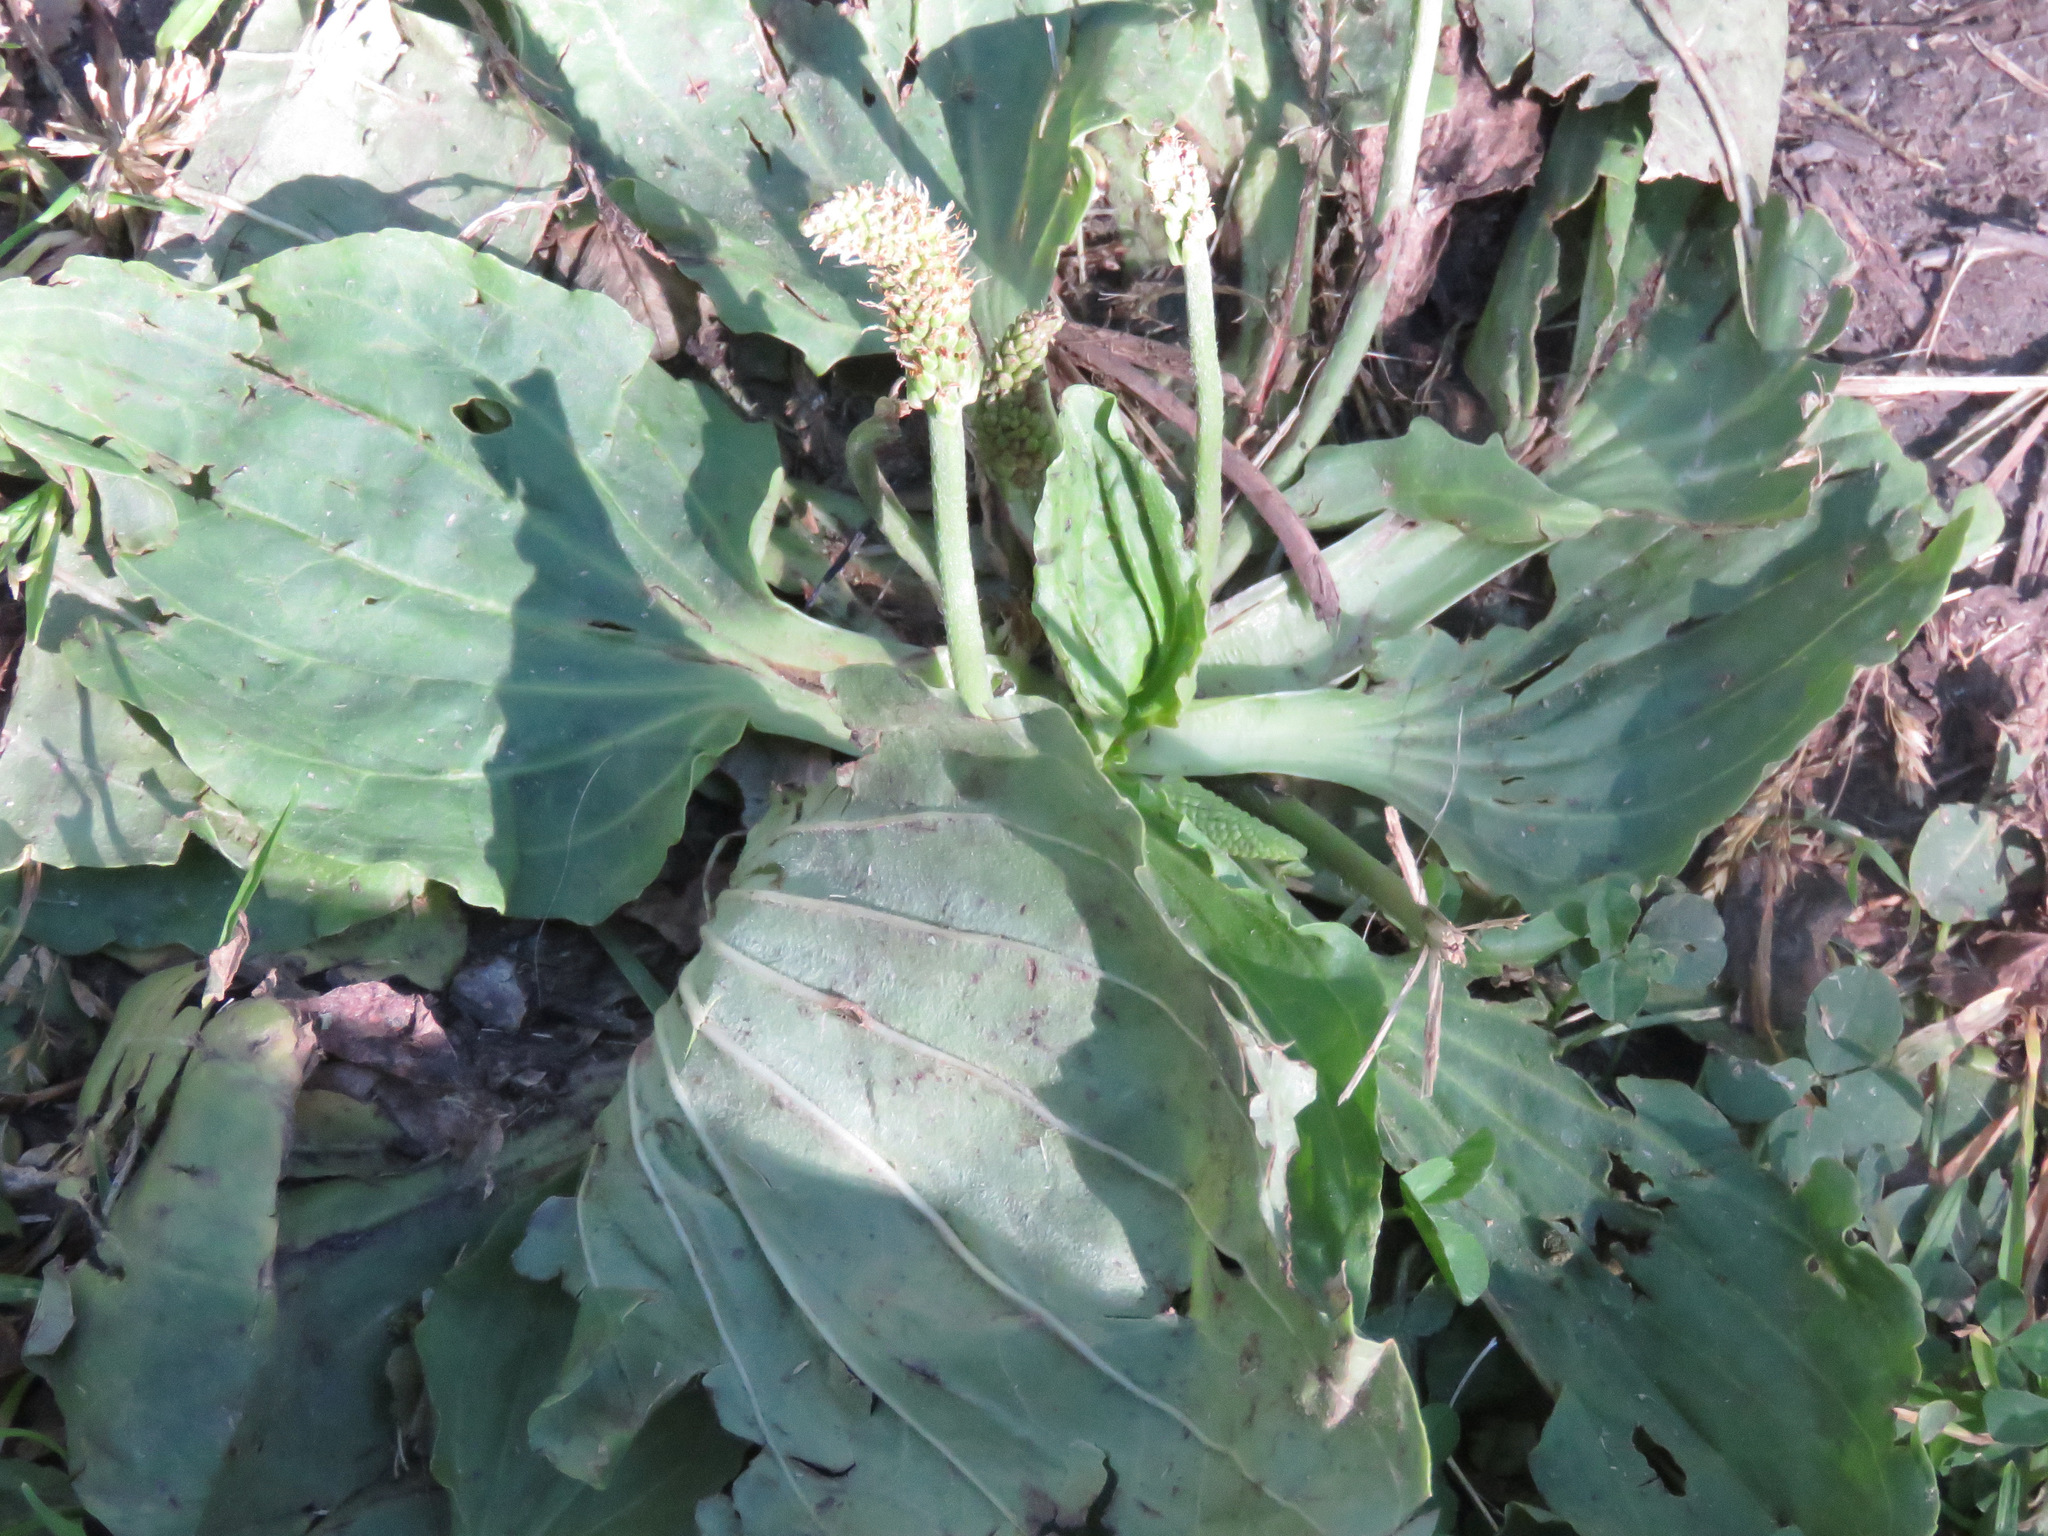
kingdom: Plantae
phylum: Tracheophyta
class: Magnoliopsida
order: Lamiales
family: Plantaginaceae
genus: Plantago
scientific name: Plantago major
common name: Common plantain
